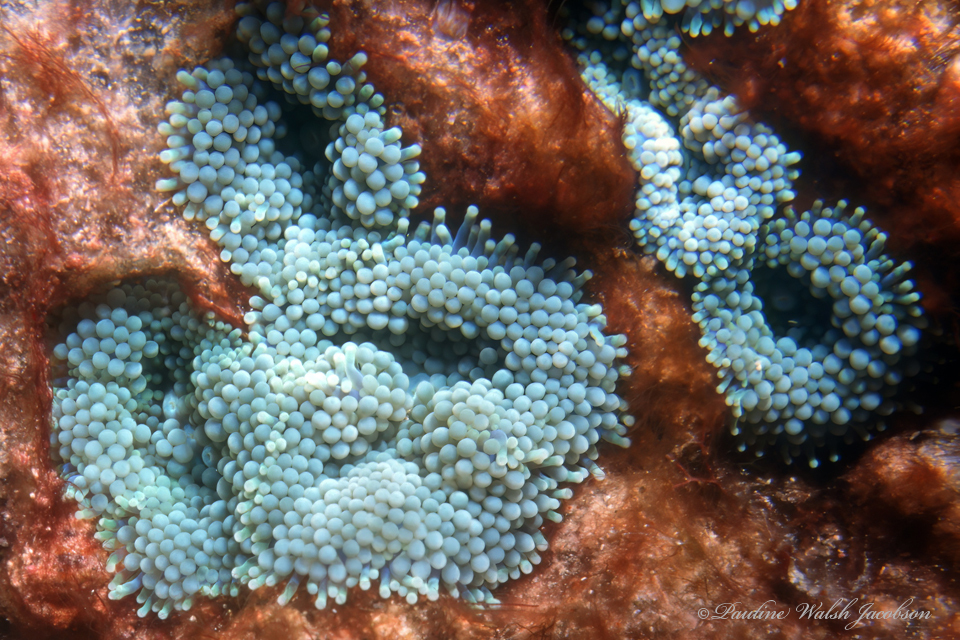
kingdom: Animalia
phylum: Cnidaria
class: Anthozoa
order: Corallimorpharia
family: Ricordeidae
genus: Ricordea
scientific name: Ricordea florida
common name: False coral
